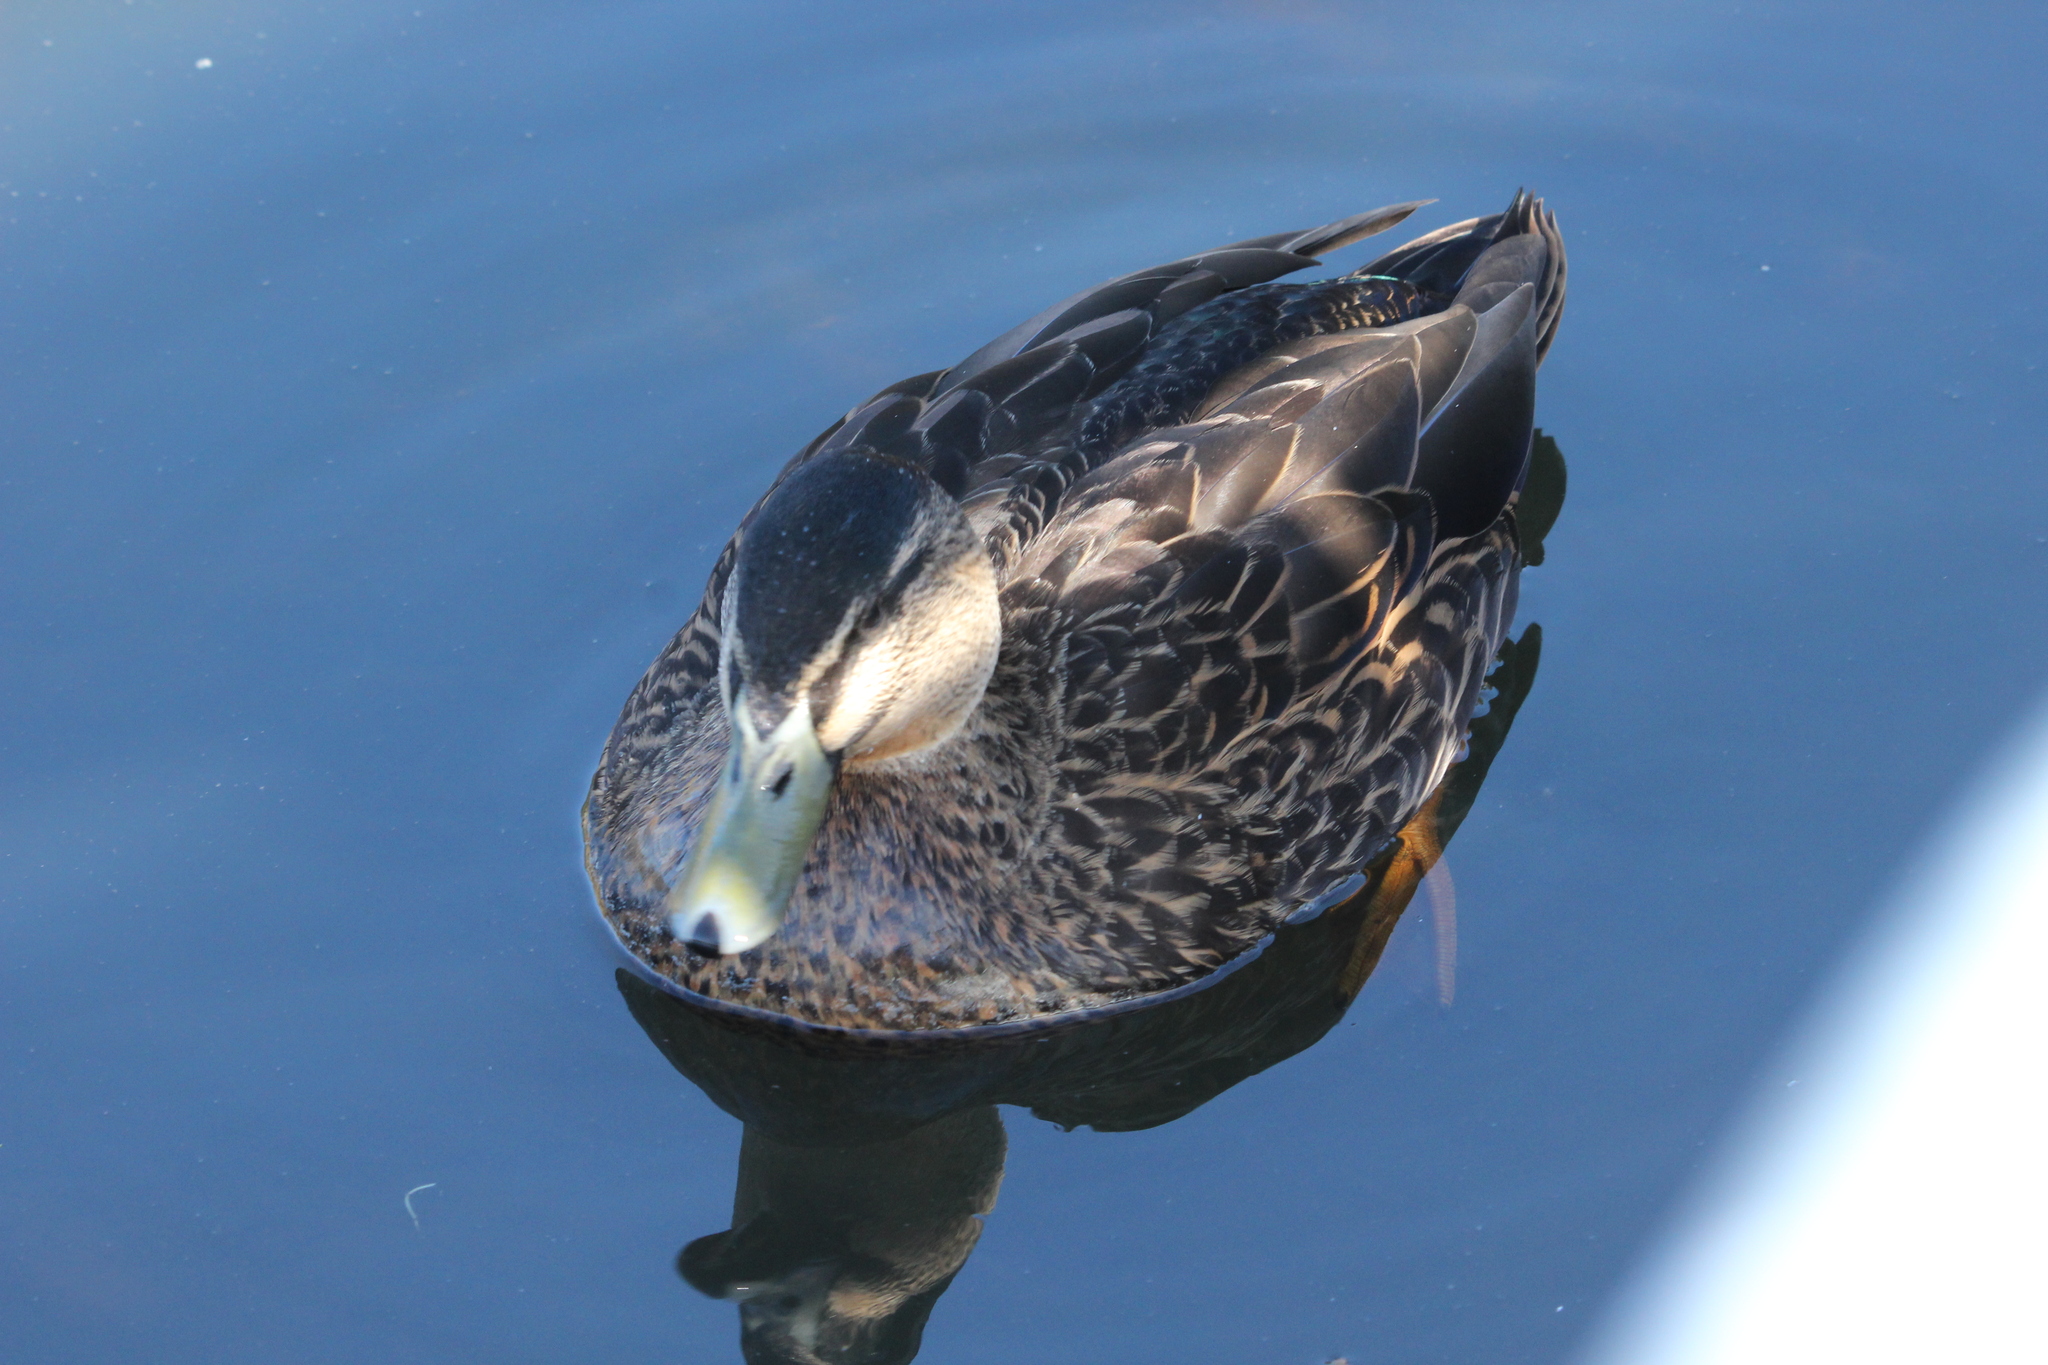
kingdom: Animalia
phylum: Chordata
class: Aves
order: Anseriformes
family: Anatidae
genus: Anas
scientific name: Anas
